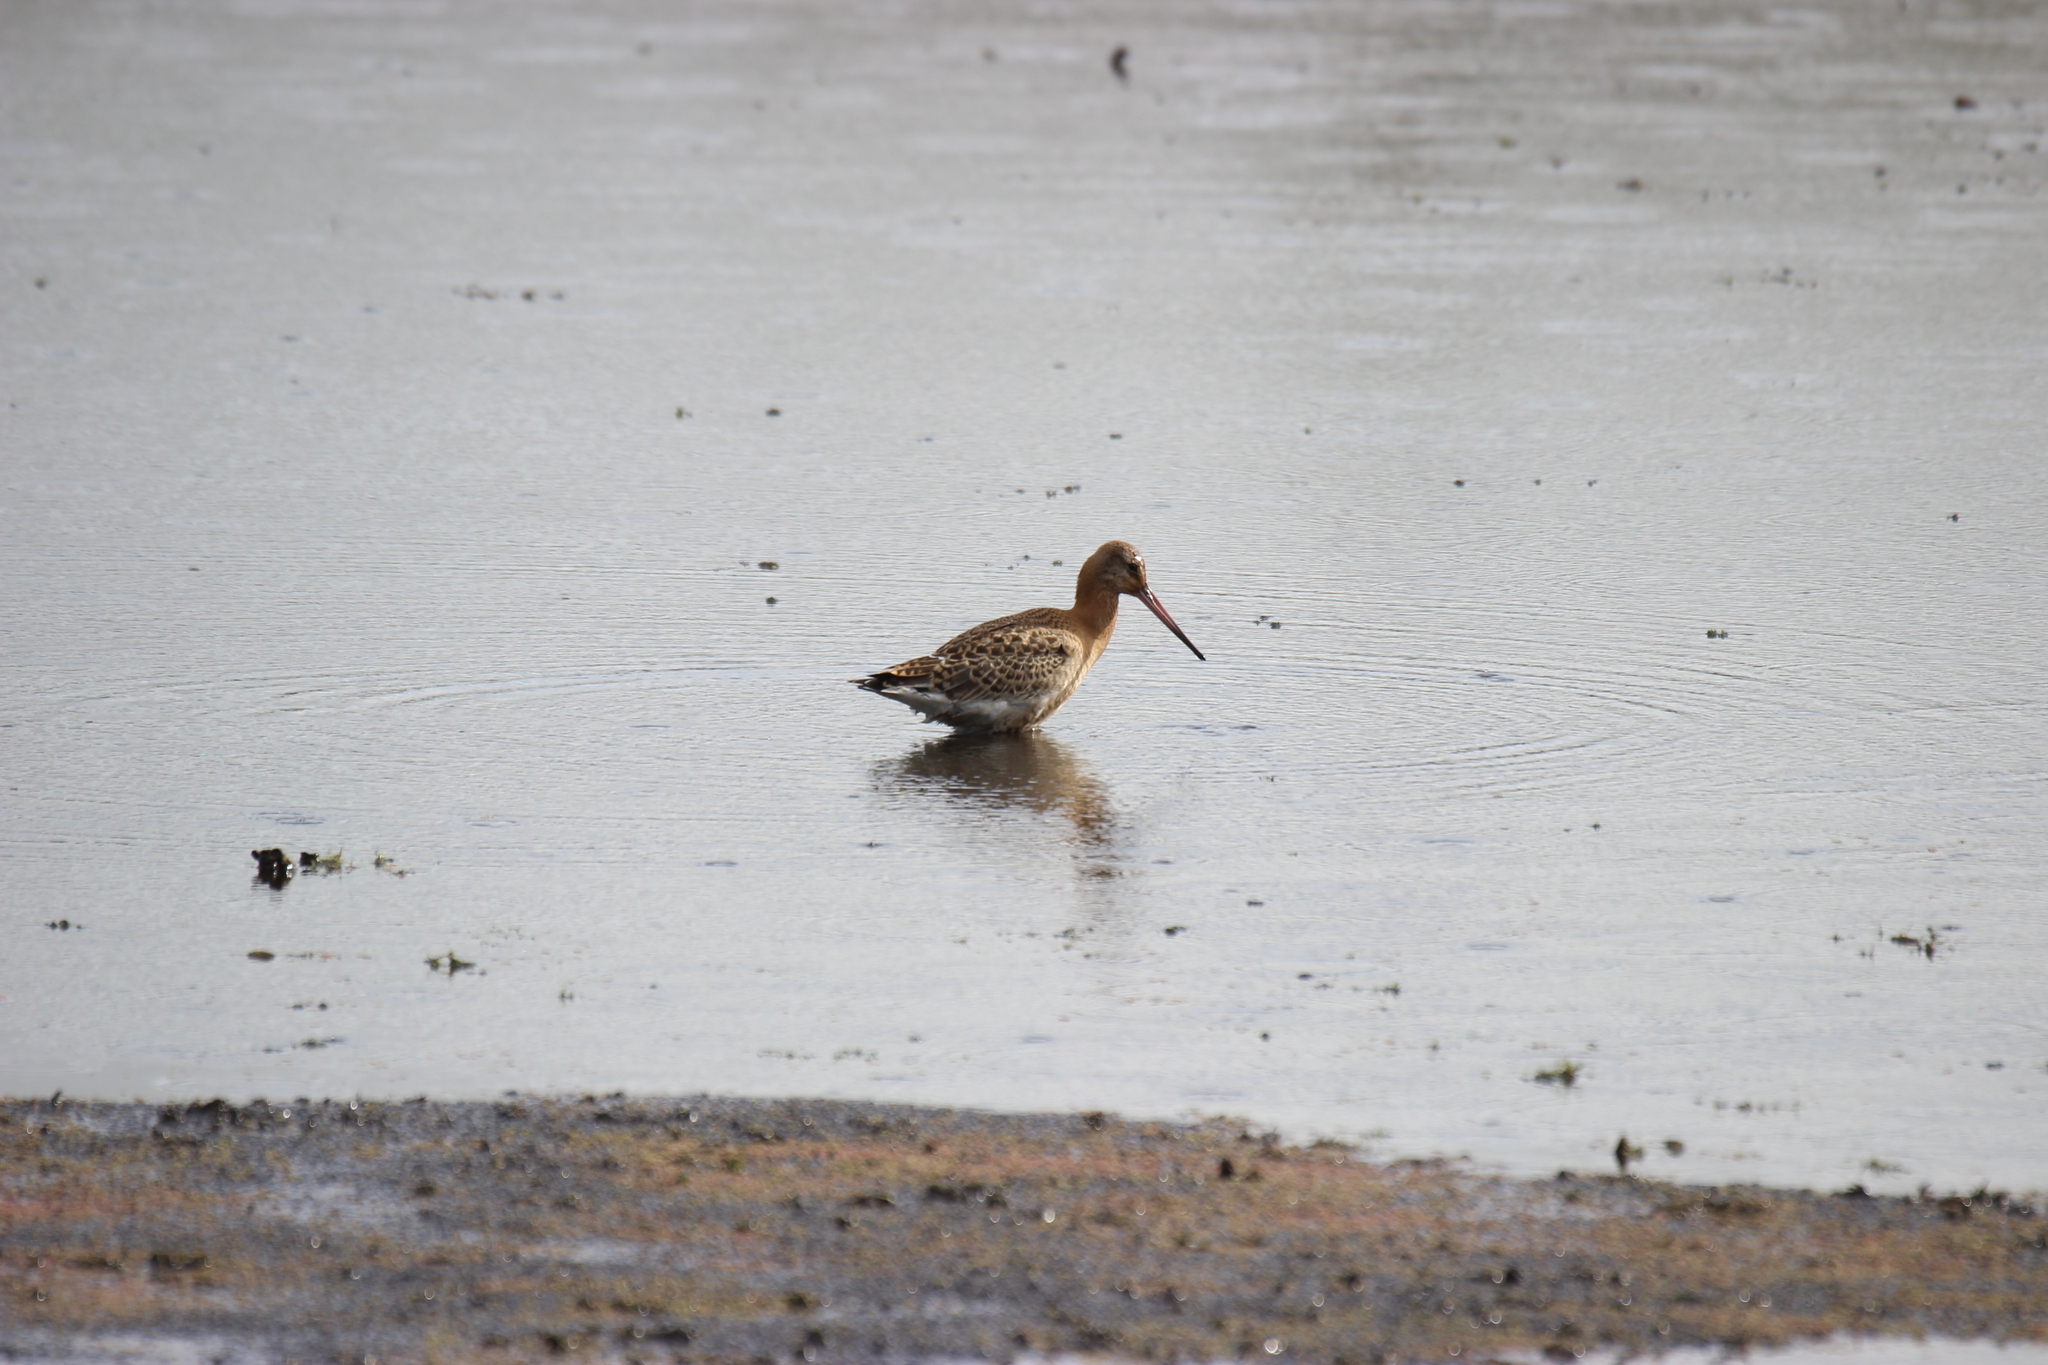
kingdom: Animalia
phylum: Chordata
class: Aves
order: Charadriiformes
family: Scolopacidae
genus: Limosa
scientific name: Limosa limosa
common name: Black-tailed godwit
